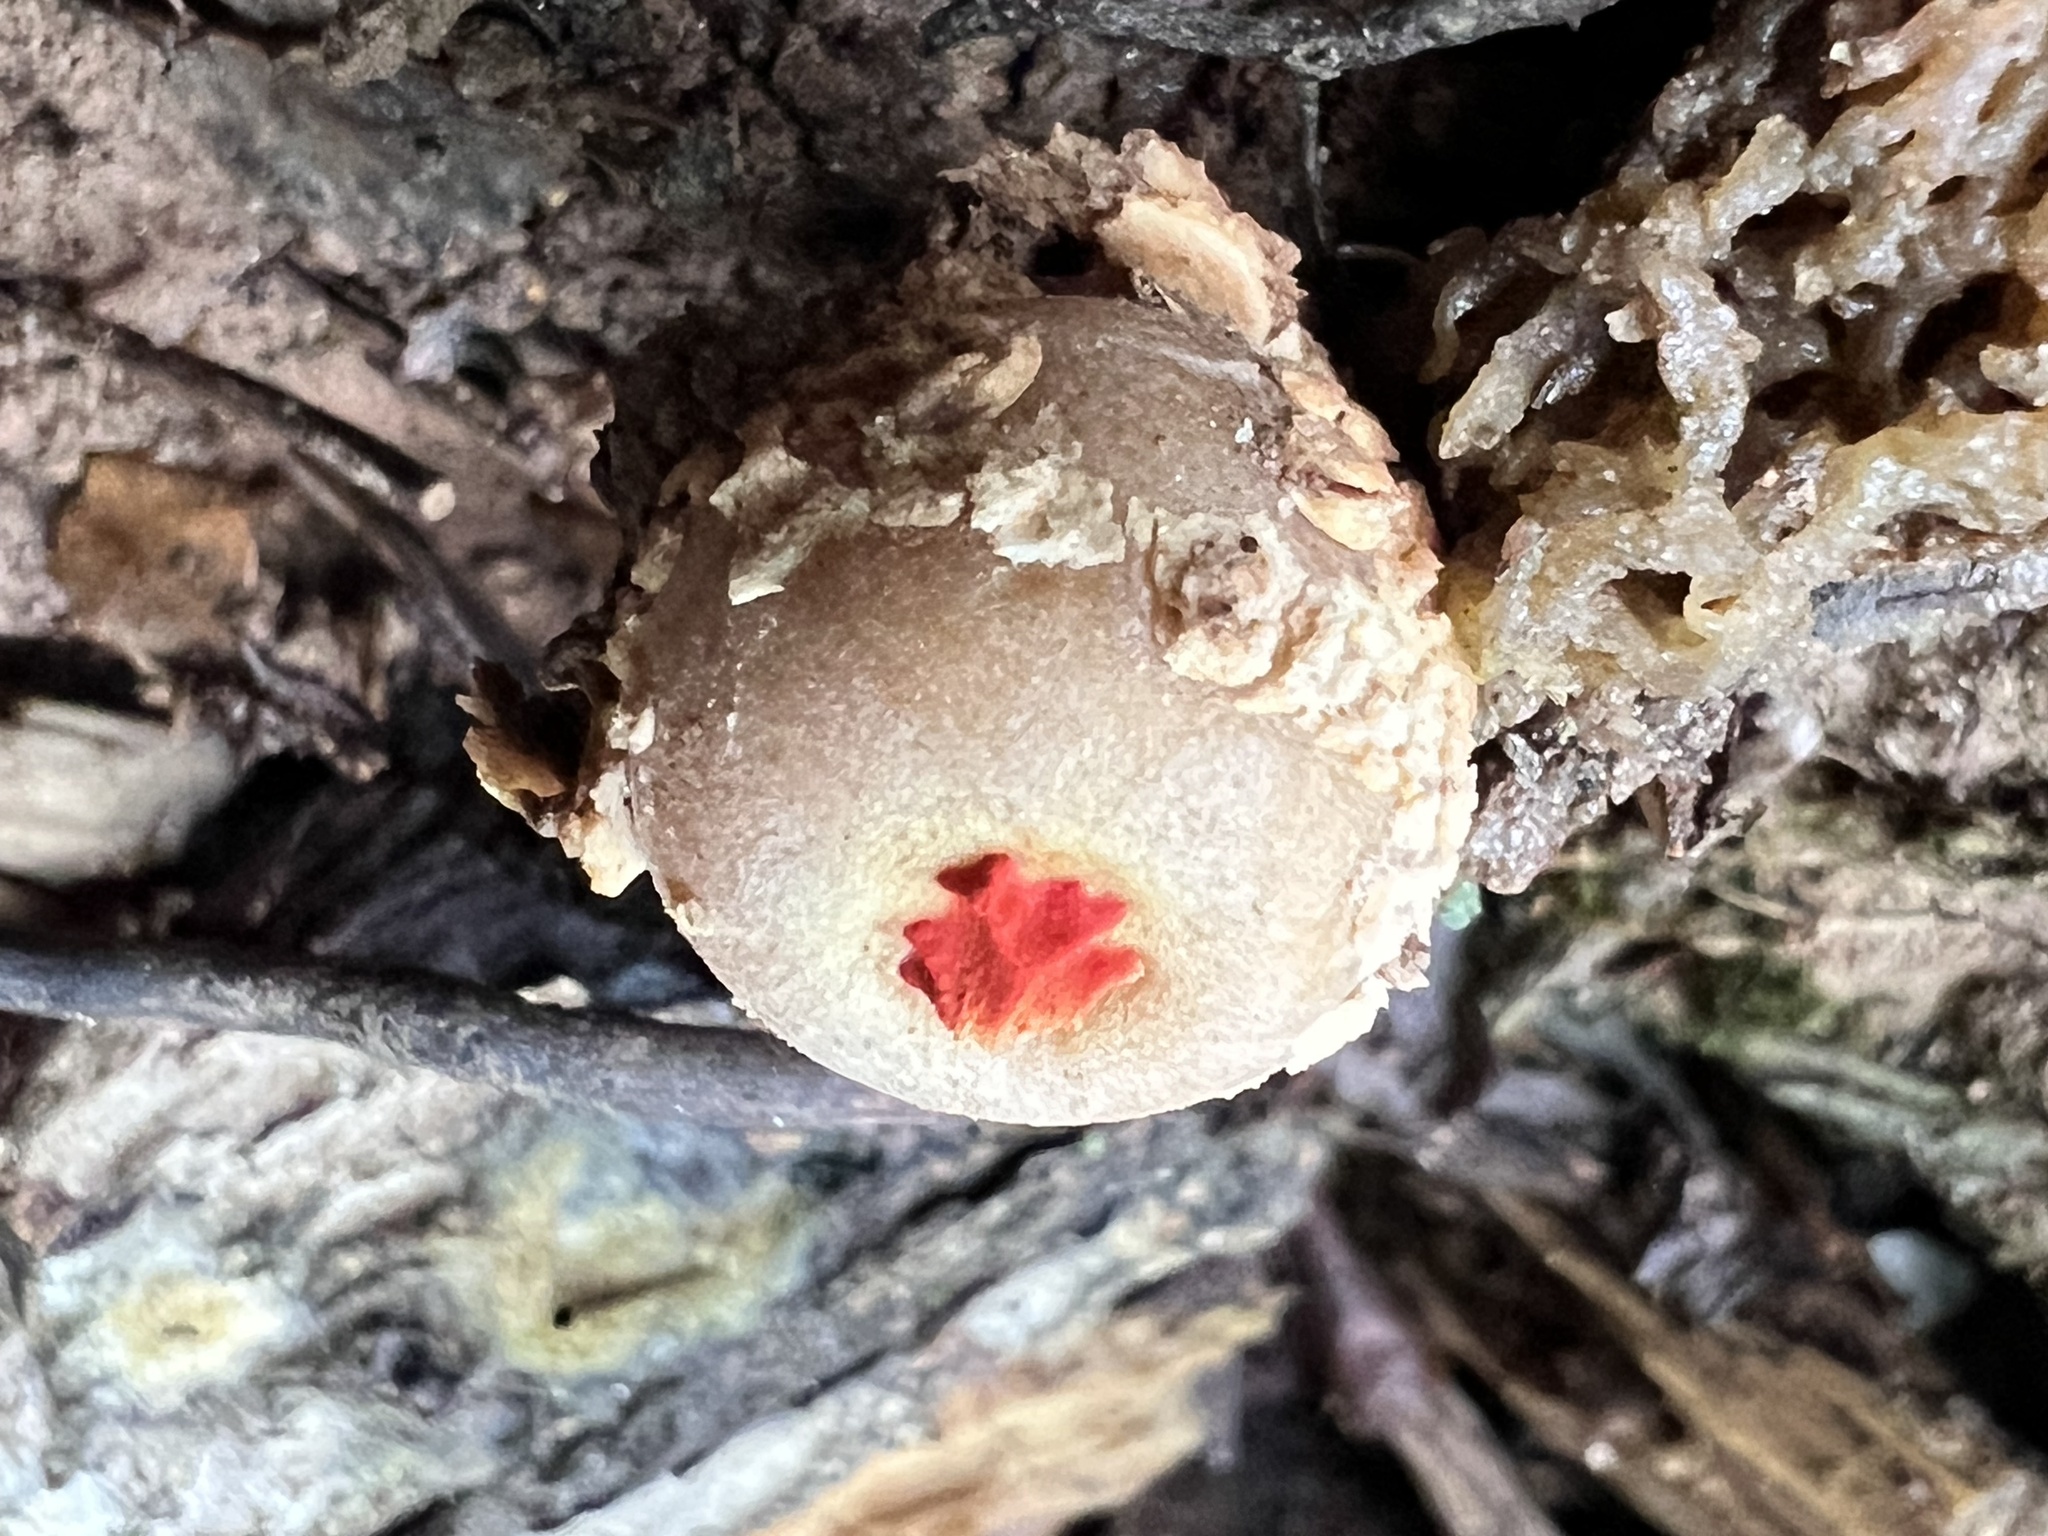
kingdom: Fungi
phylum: Basidiomycota
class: Agaricomycetes
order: Boletales
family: Calostomataceae
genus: Calostoma
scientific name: Calostoma ravenelii
